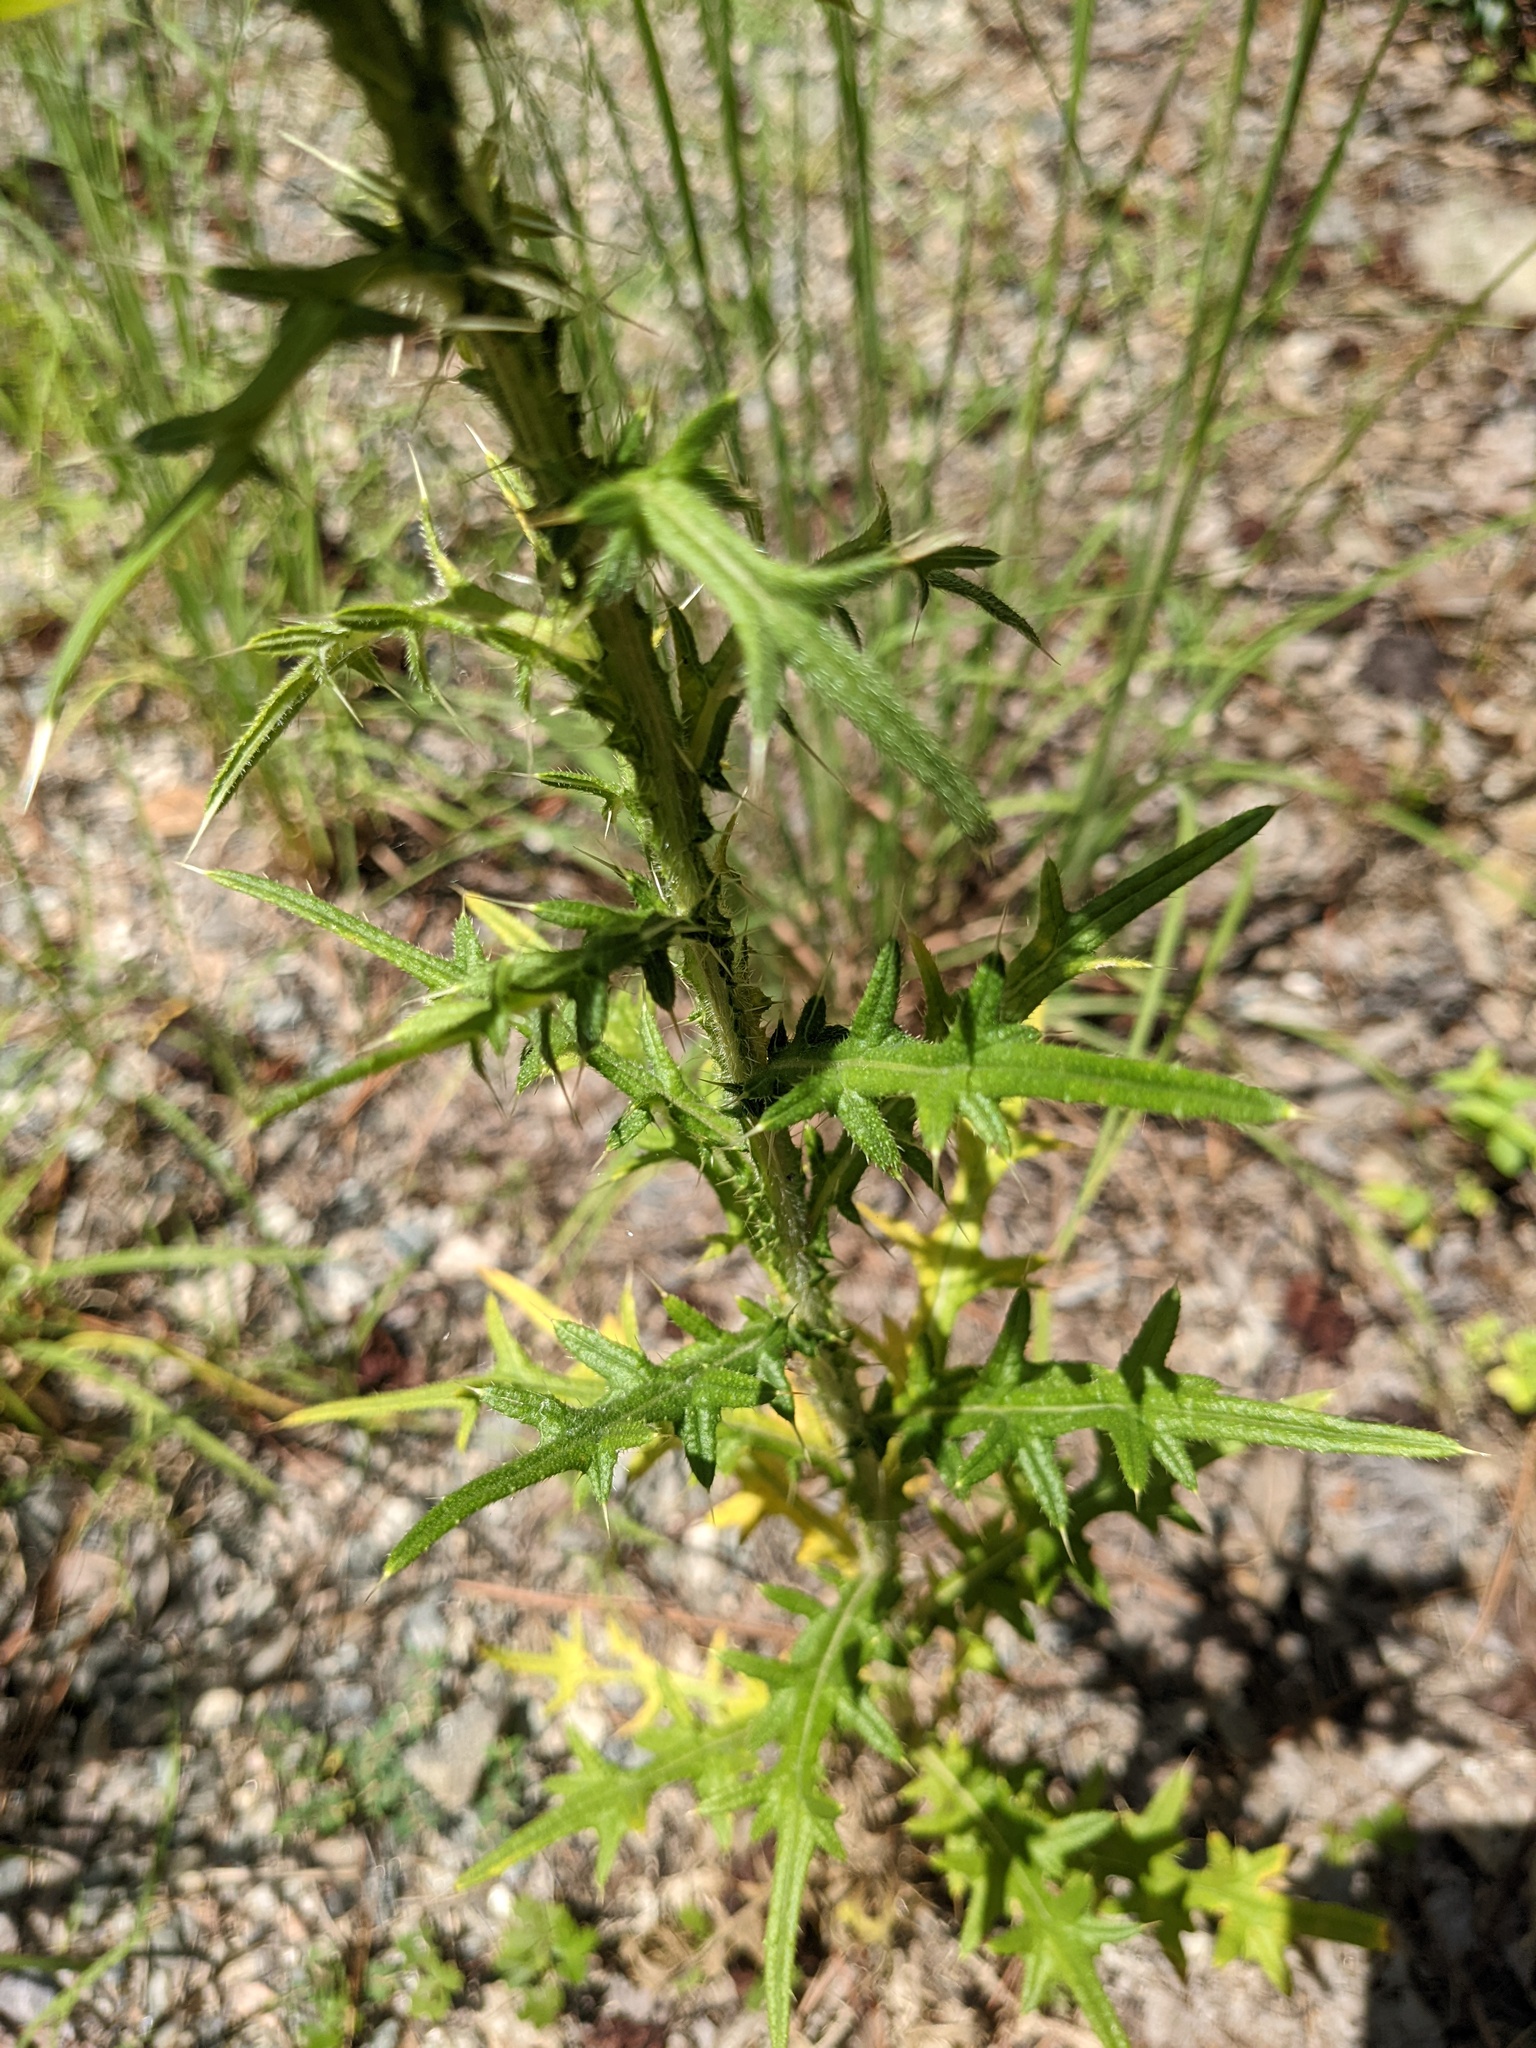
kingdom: Plantae
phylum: Tracheophyta
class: Magnoliopsida
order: Asterales
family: Asteraceae
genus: Cirsium
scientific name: Cirsium vulgare
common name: Bull thistle
